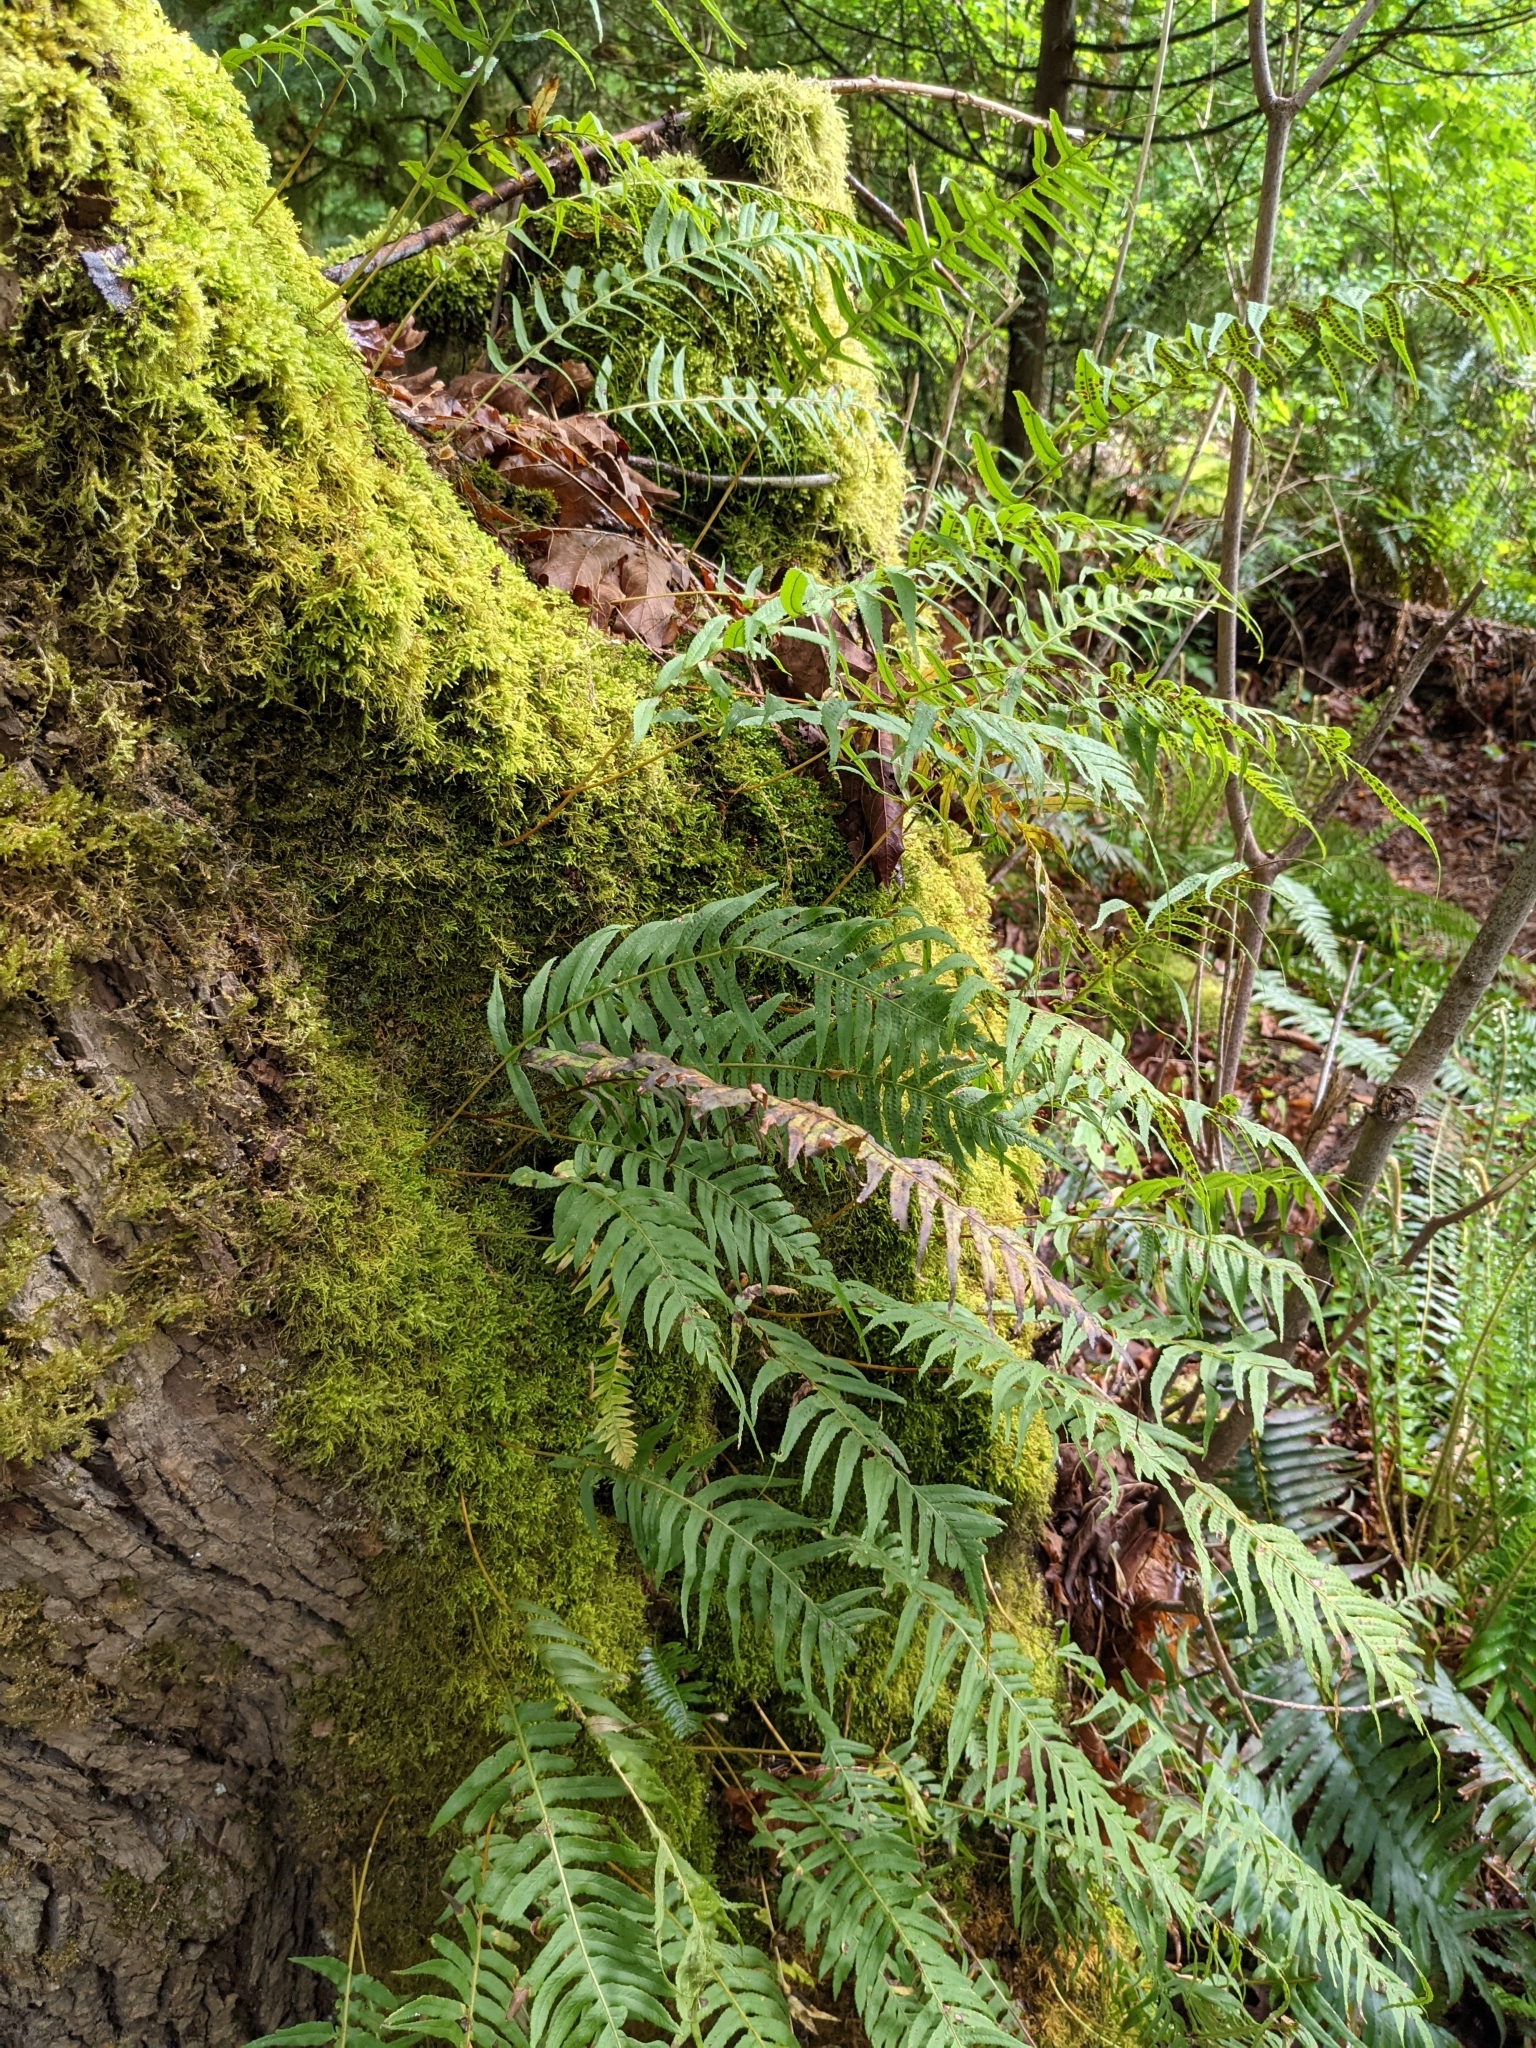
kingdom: Plantae
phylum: Tracheophyta
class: Polypodiopsida
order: Polypodiales
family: Polypodiaceae
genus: Polypodium
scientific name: Polypodium glycyrrhiza
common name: Licorice fern
